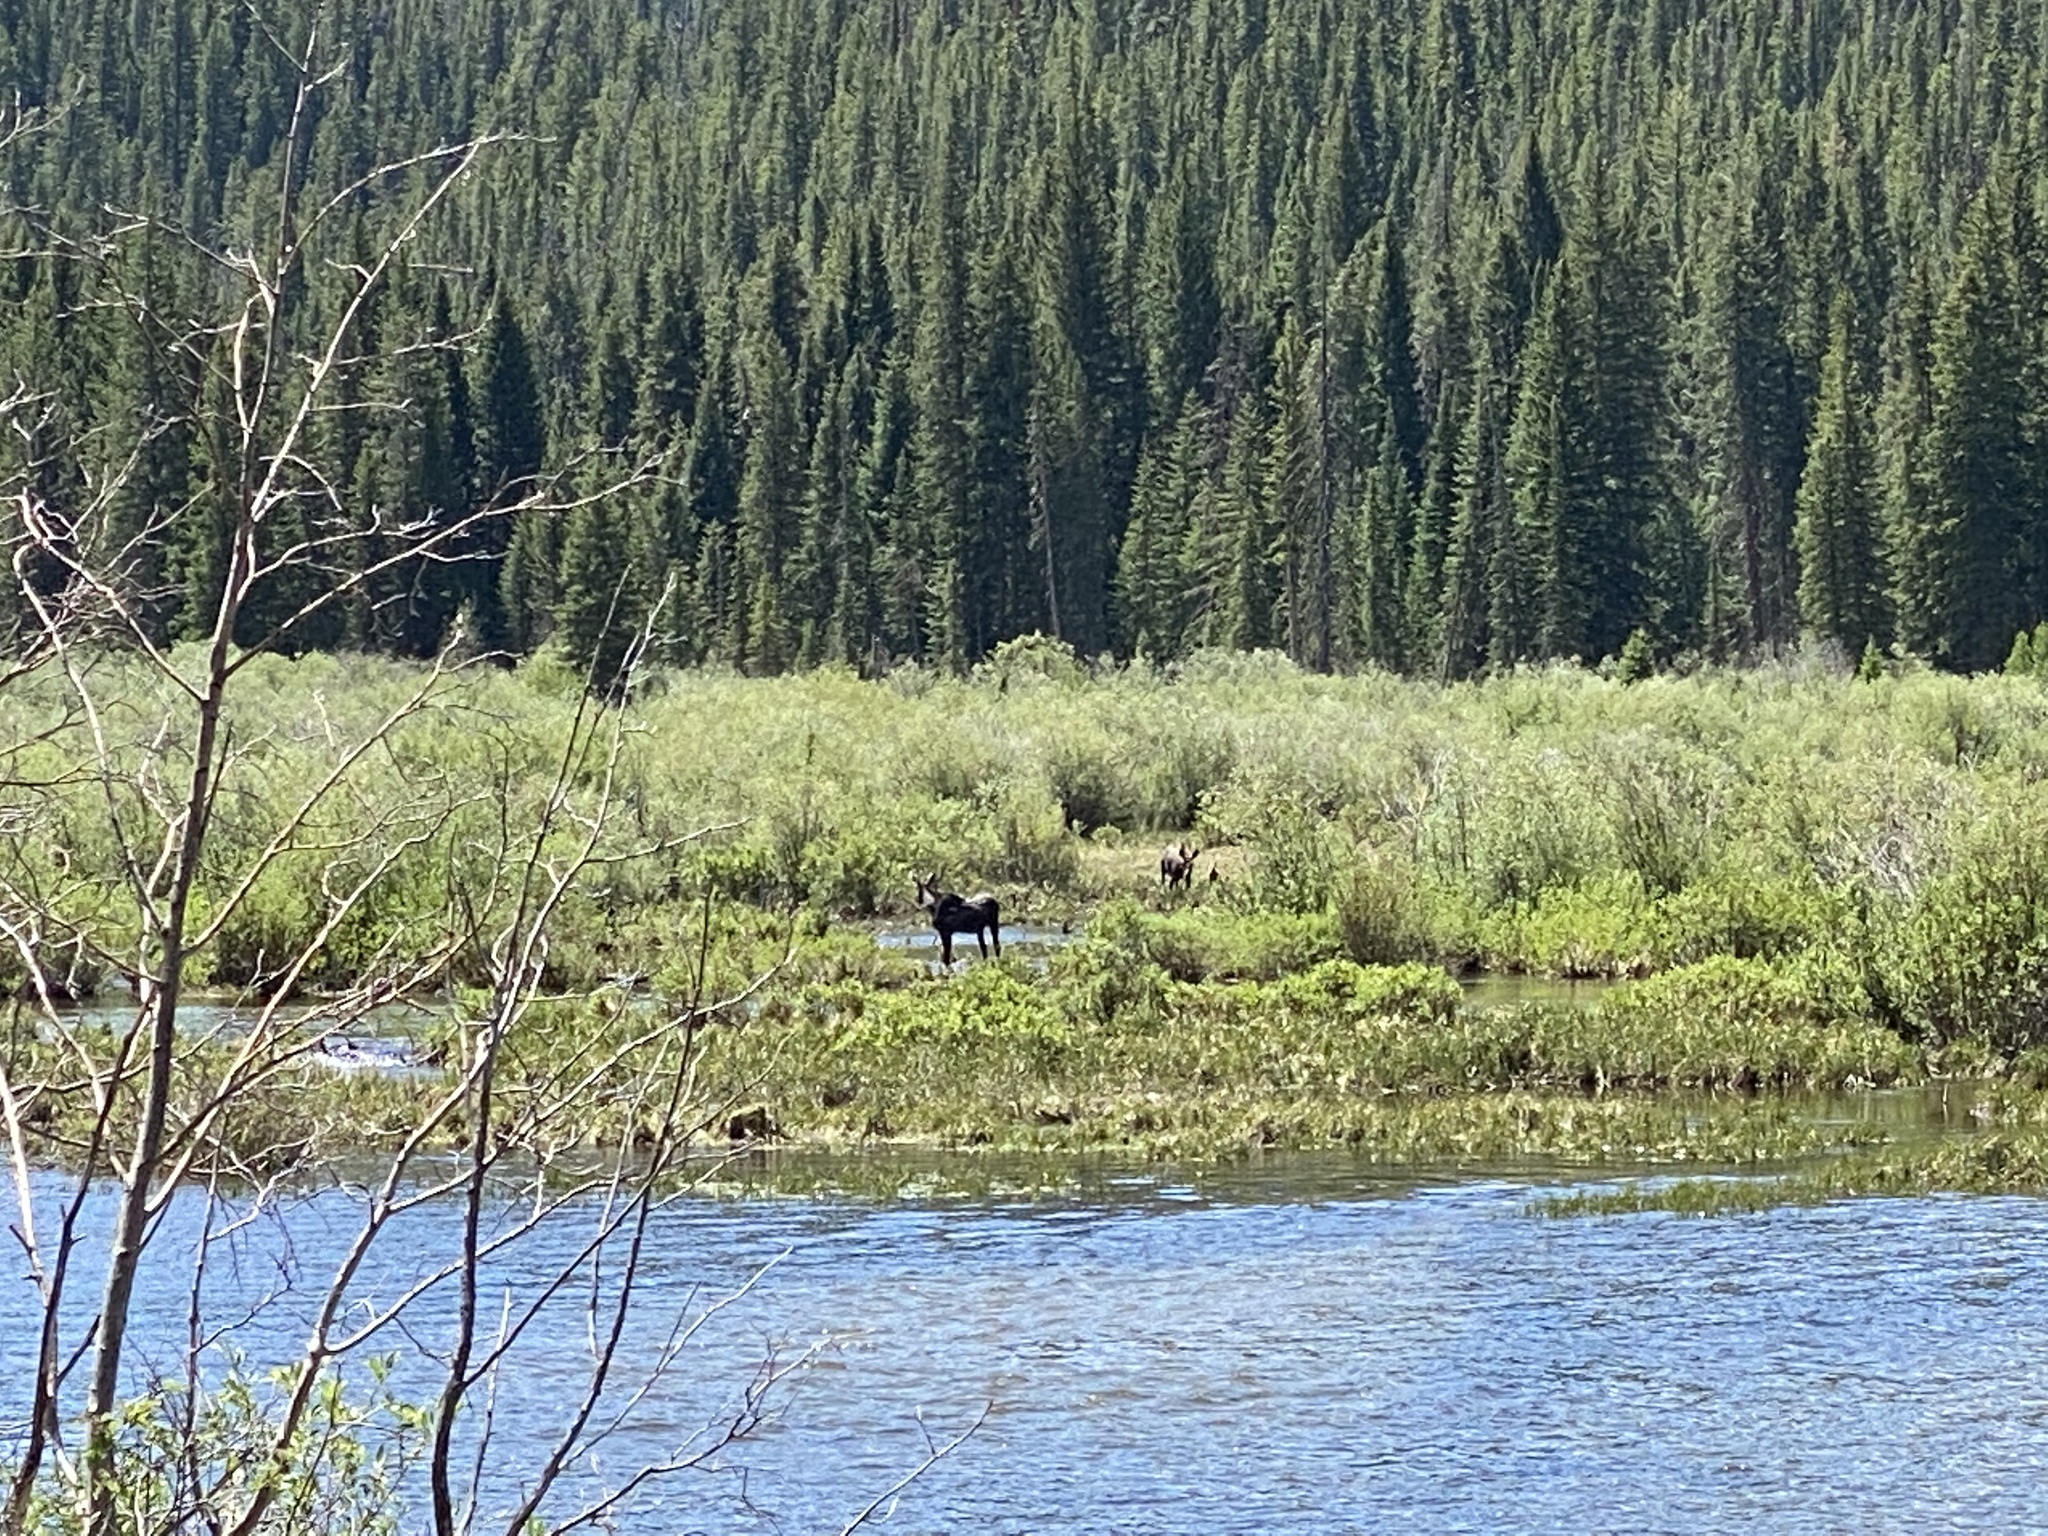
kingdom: Animalia
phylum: Chordata
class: Mammalia
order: Artiodactyla
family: Cervidae
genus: Alces
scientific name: Alces alces
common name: Moose
